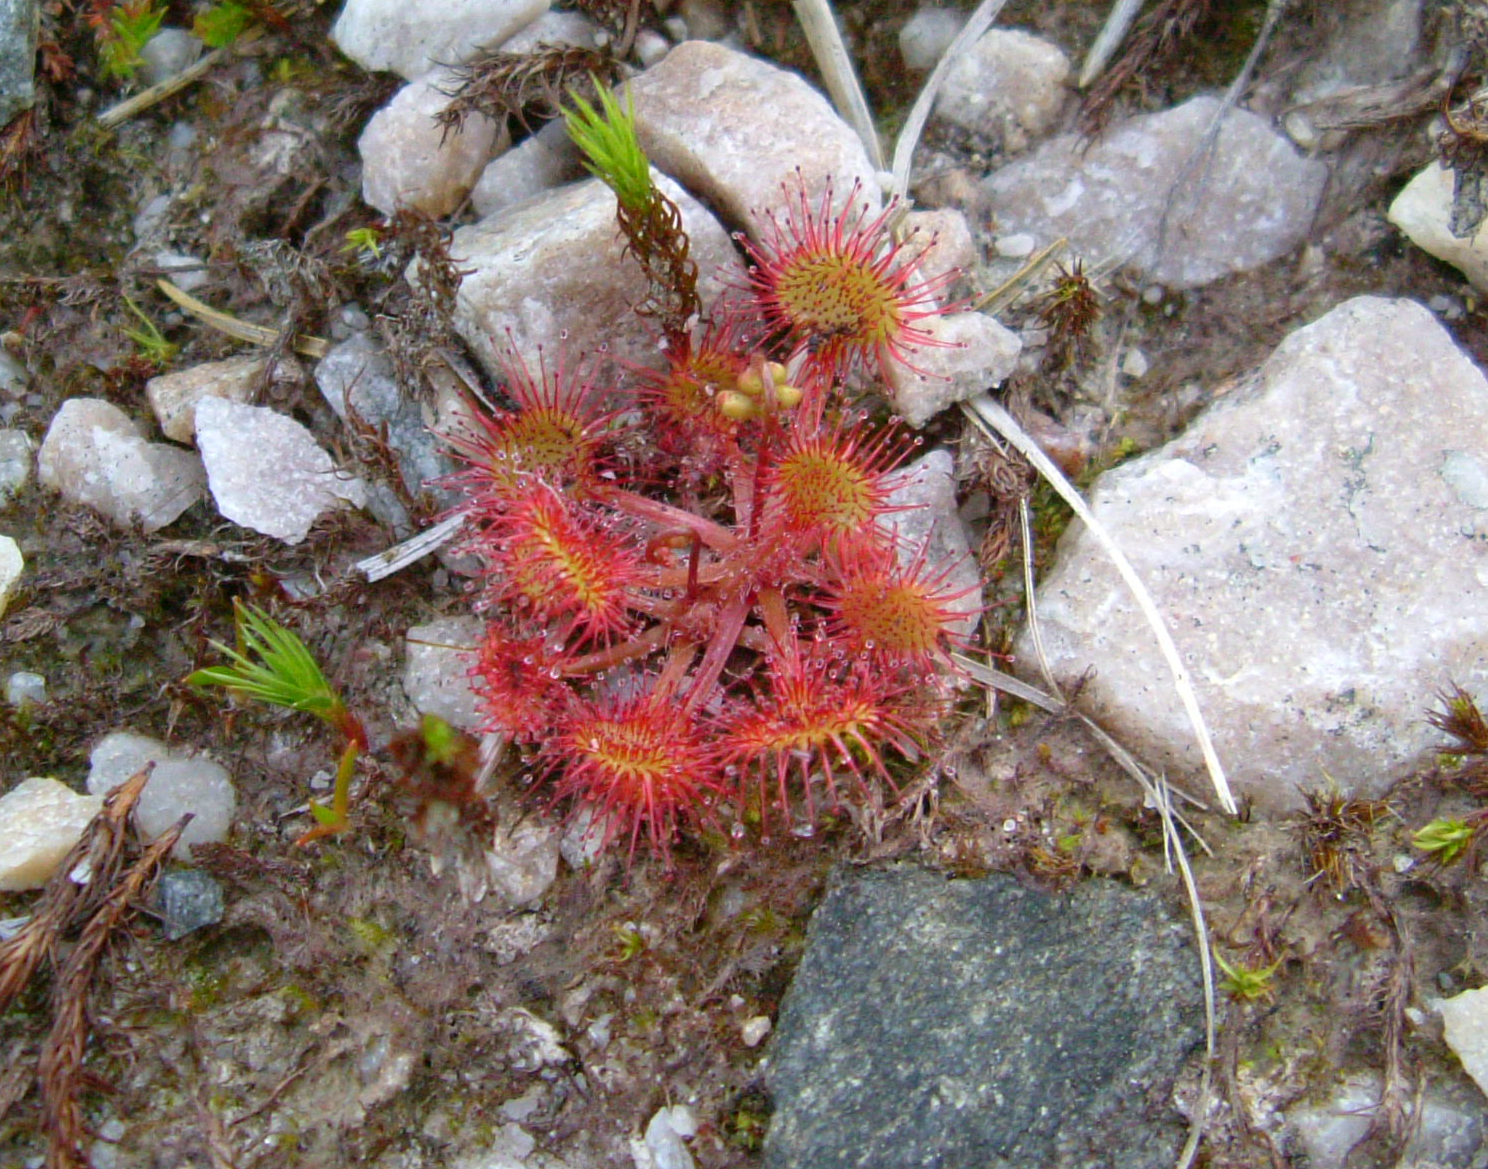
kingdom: Plantae
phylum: Tracheophyta
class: Magnoliopsida
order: Caryophyllales
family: Droseraceae
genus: Drosera
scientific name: Drosera rotundifolia
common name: Round-leaved sundew
